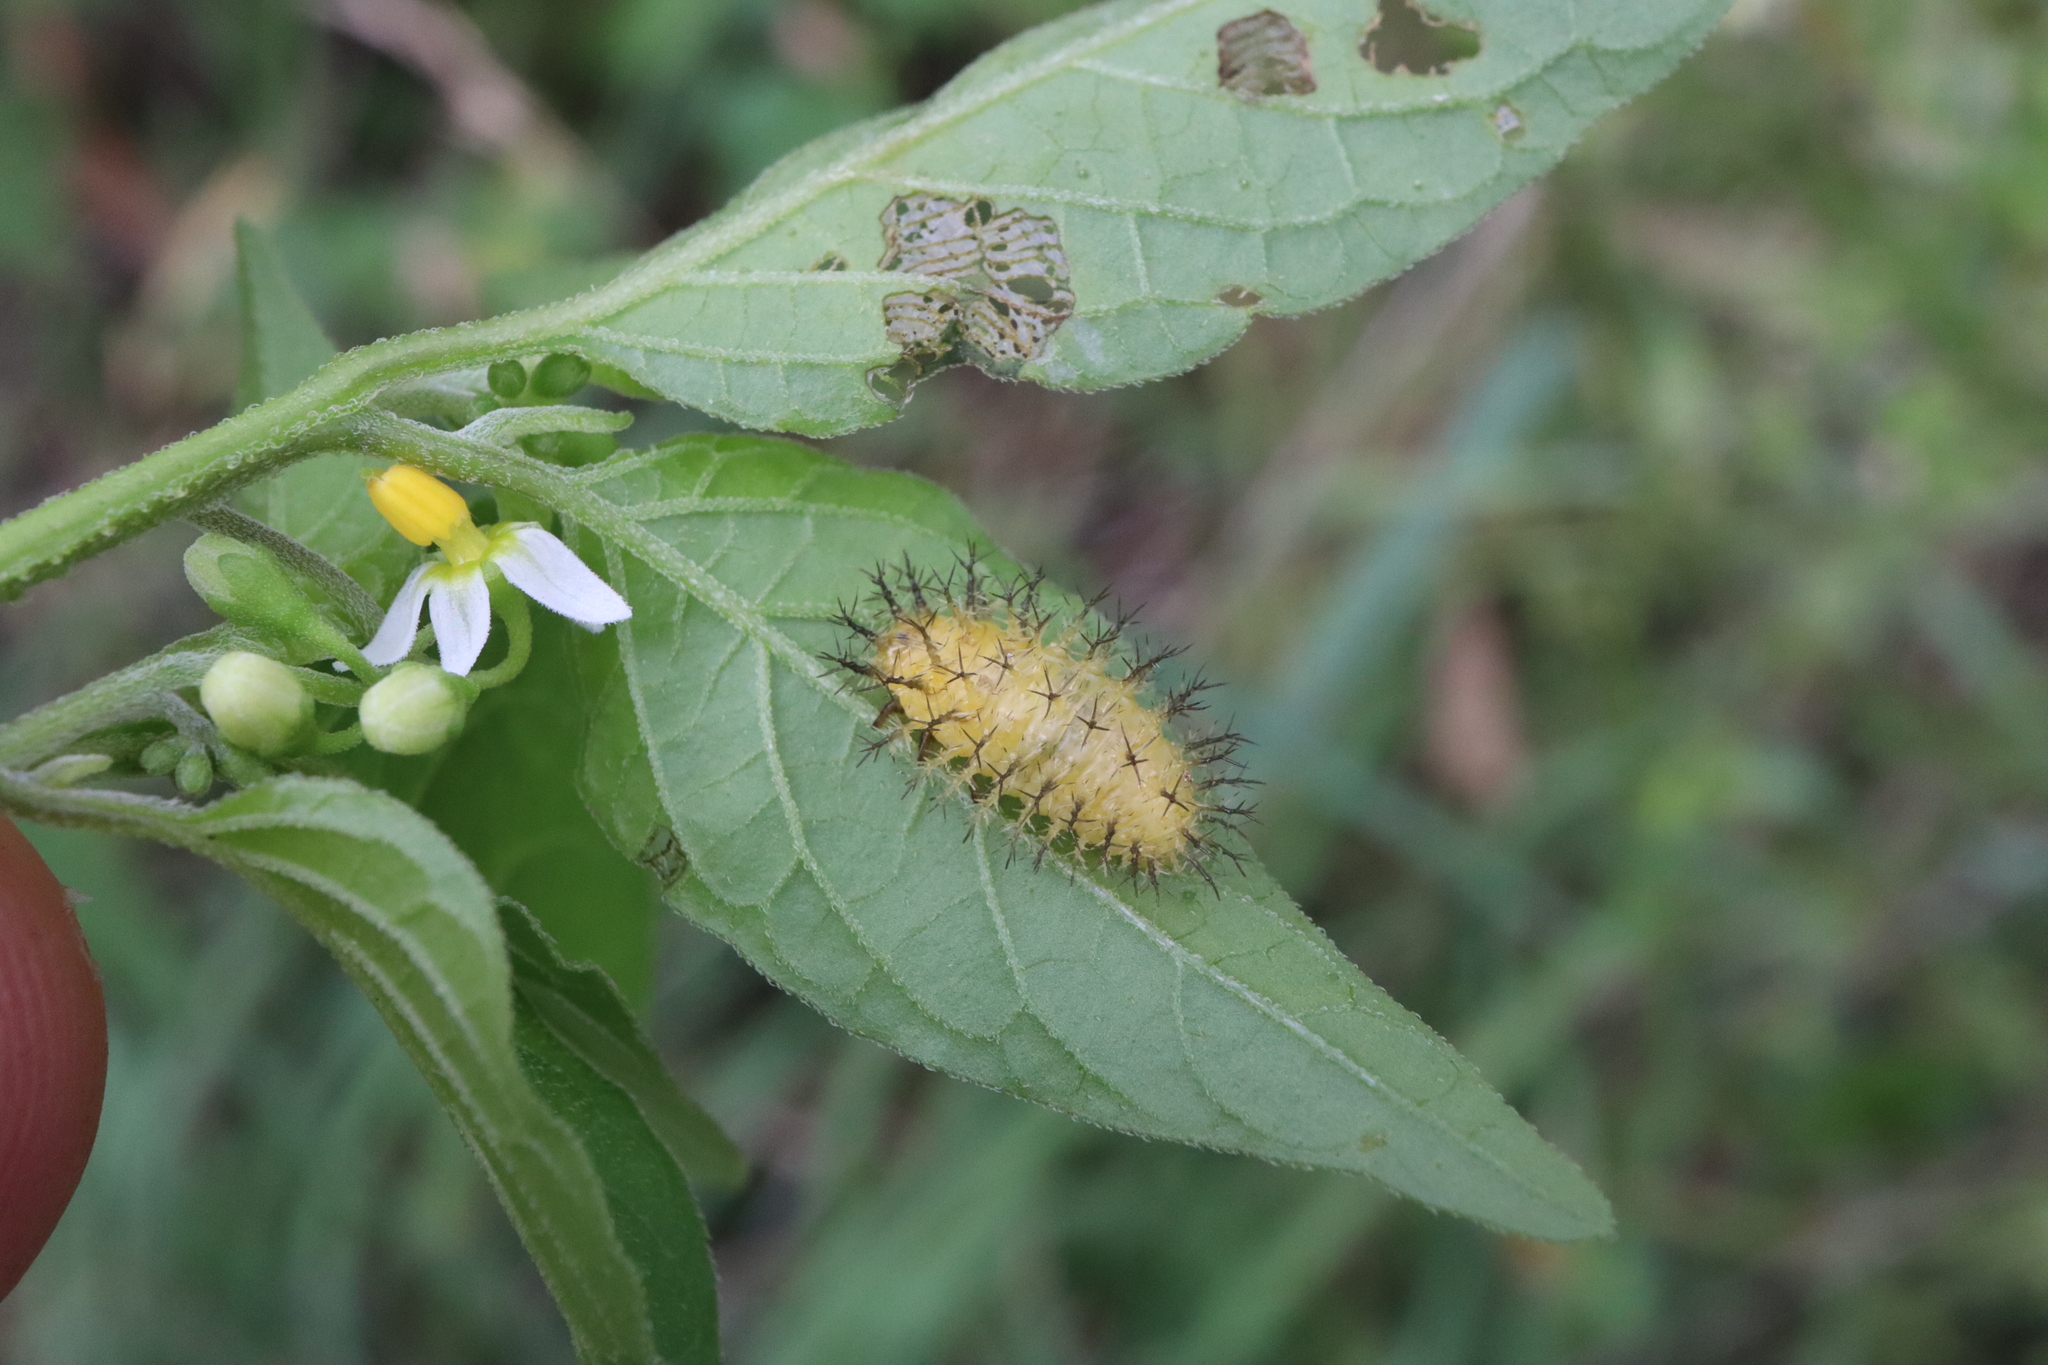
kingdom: Animalia
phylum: Arthropoda
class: Insecta
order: Coleoptera
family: Coccinellidae
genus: Henosepilachna
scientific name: Henosepilachna vigintioctopunctata
